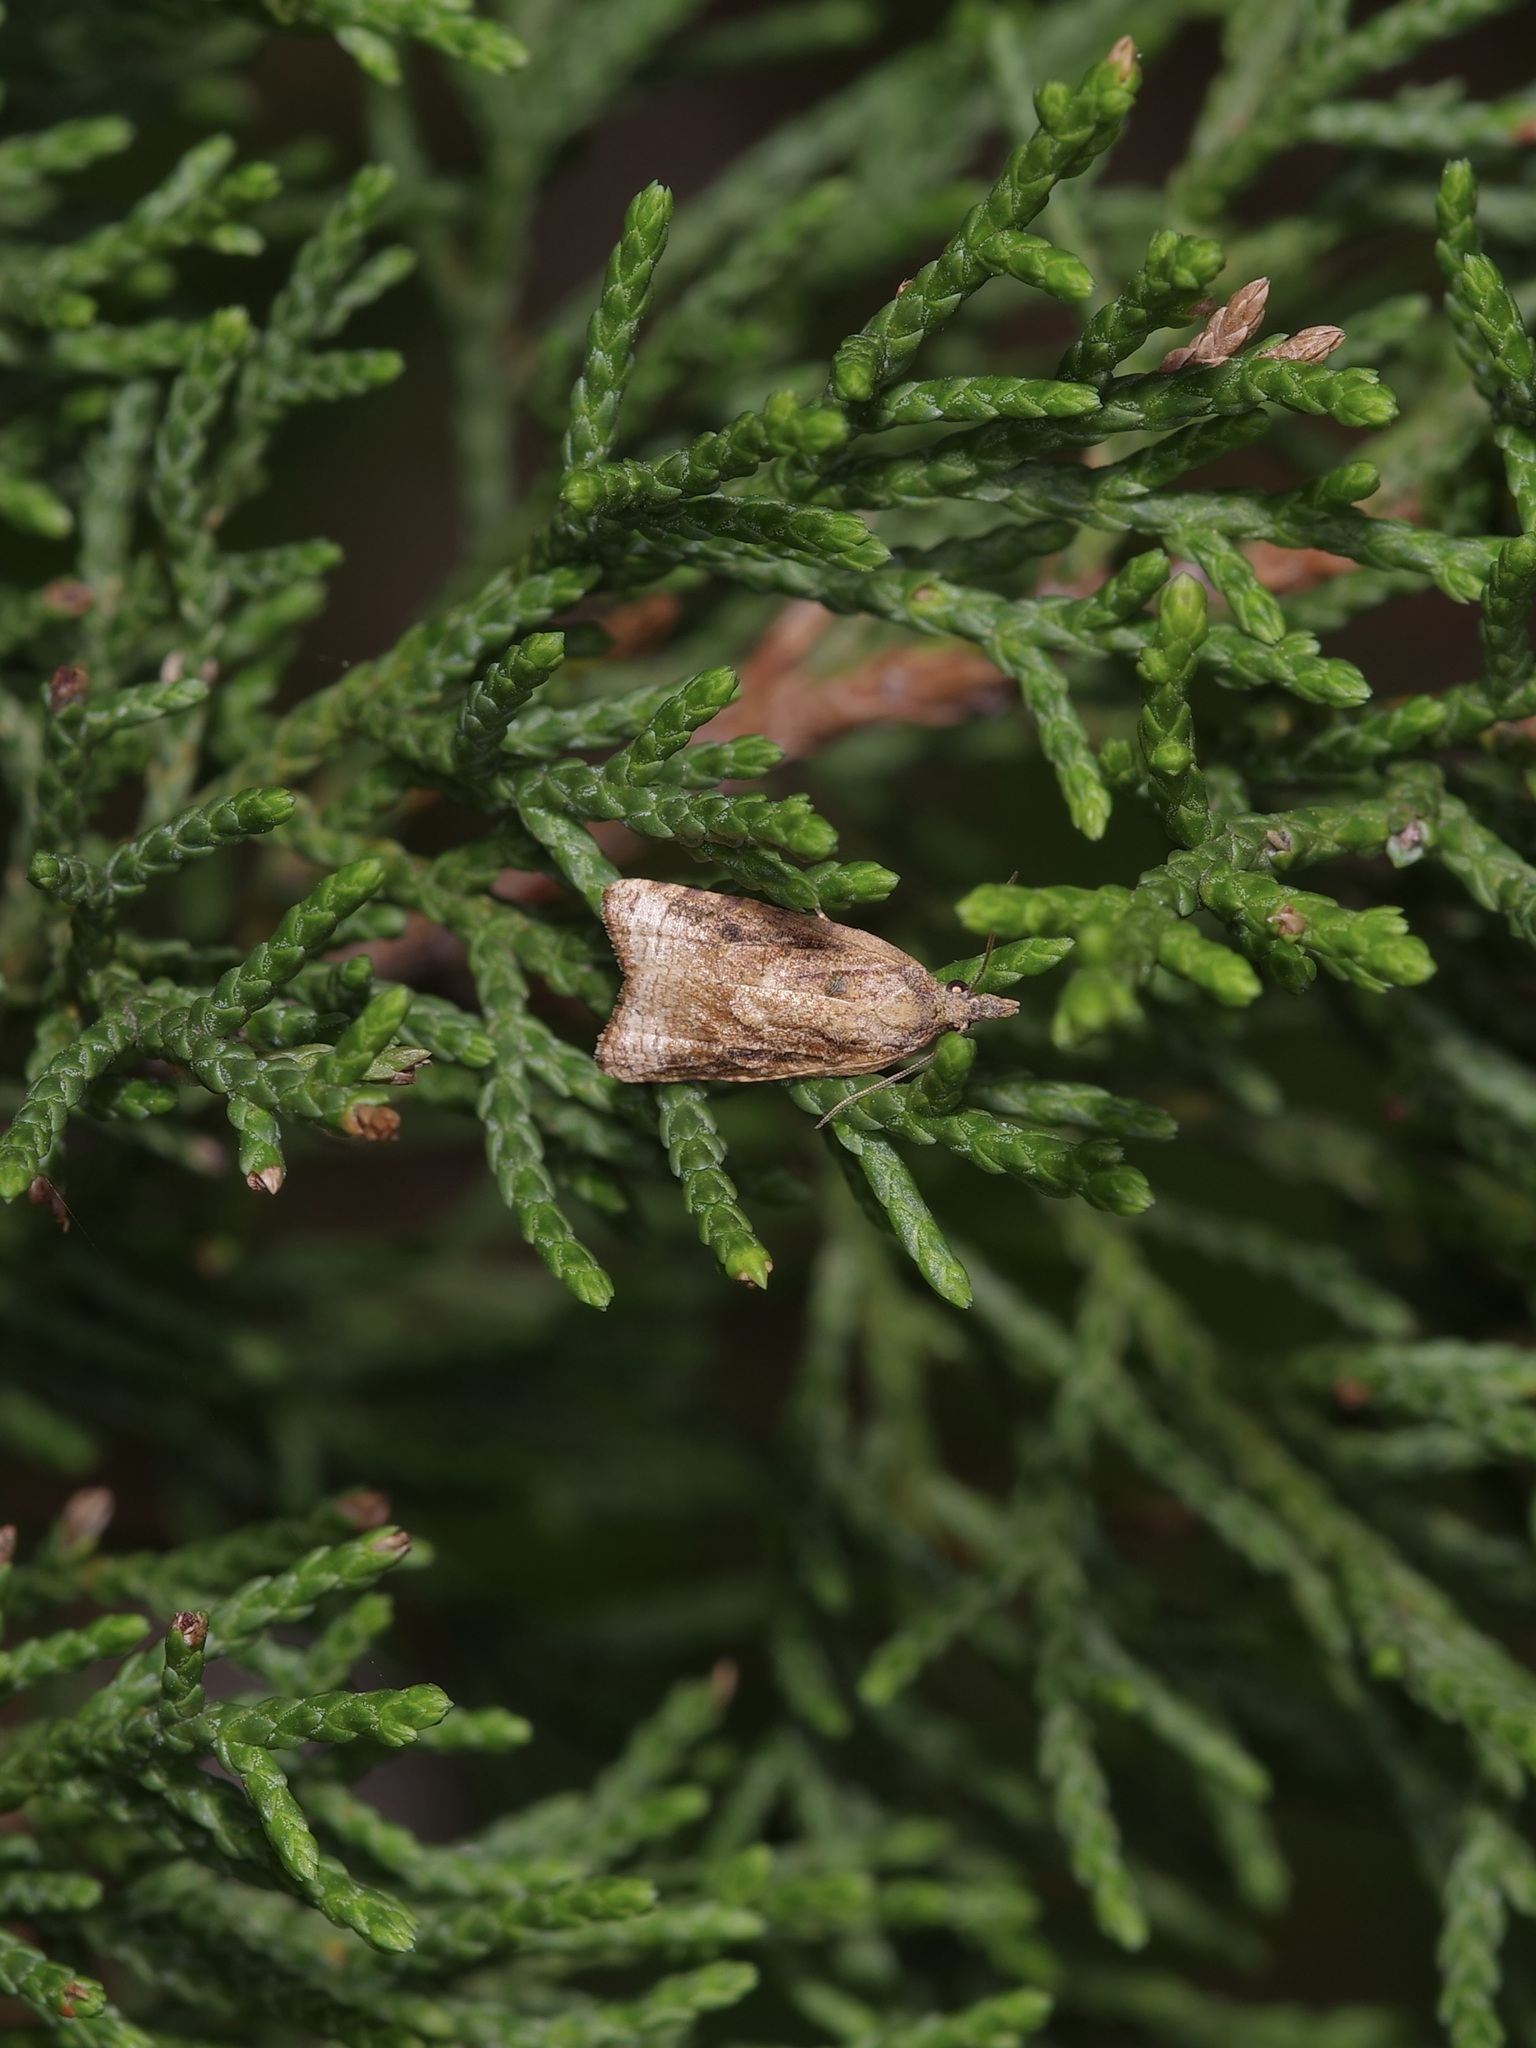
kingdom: Animalia
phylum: Arthropoda
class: Insecta
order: Lepidoptera
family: Tortricidae
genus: Platynota
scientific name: Platynota rostrana
